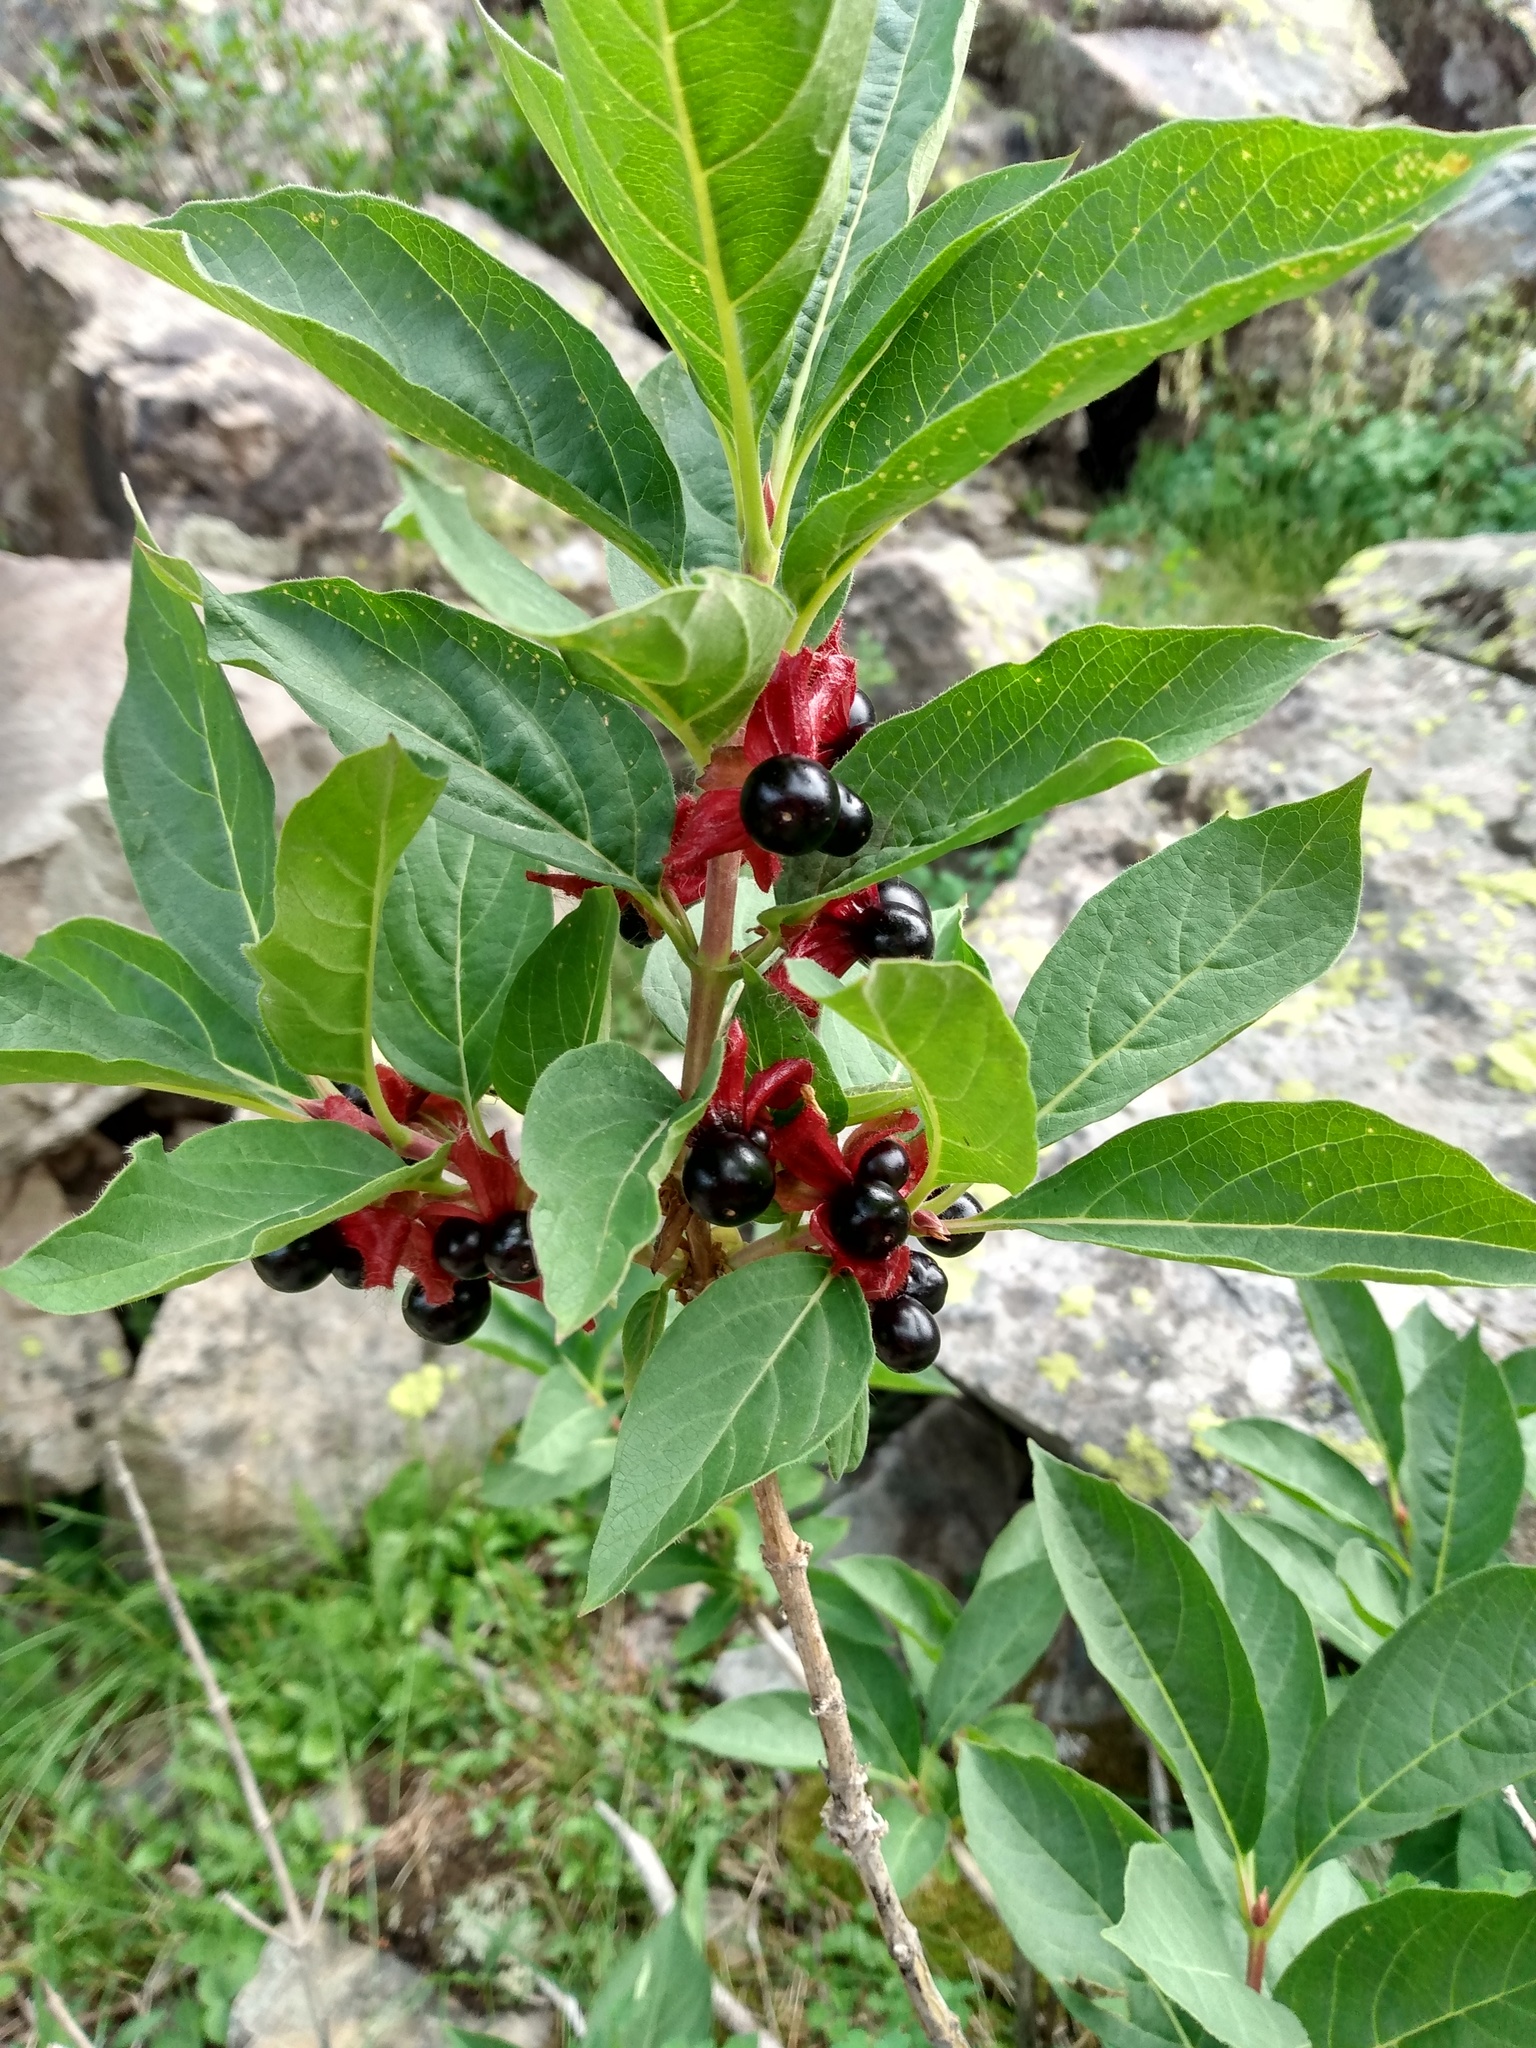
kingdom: Plantae
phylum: Tracheophyta
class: Magnoliopsida
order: Dipsacales
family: Caprifoliaceae
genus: Lonicera
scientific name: Lonicera involucrata
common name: Californian honeysuckle
